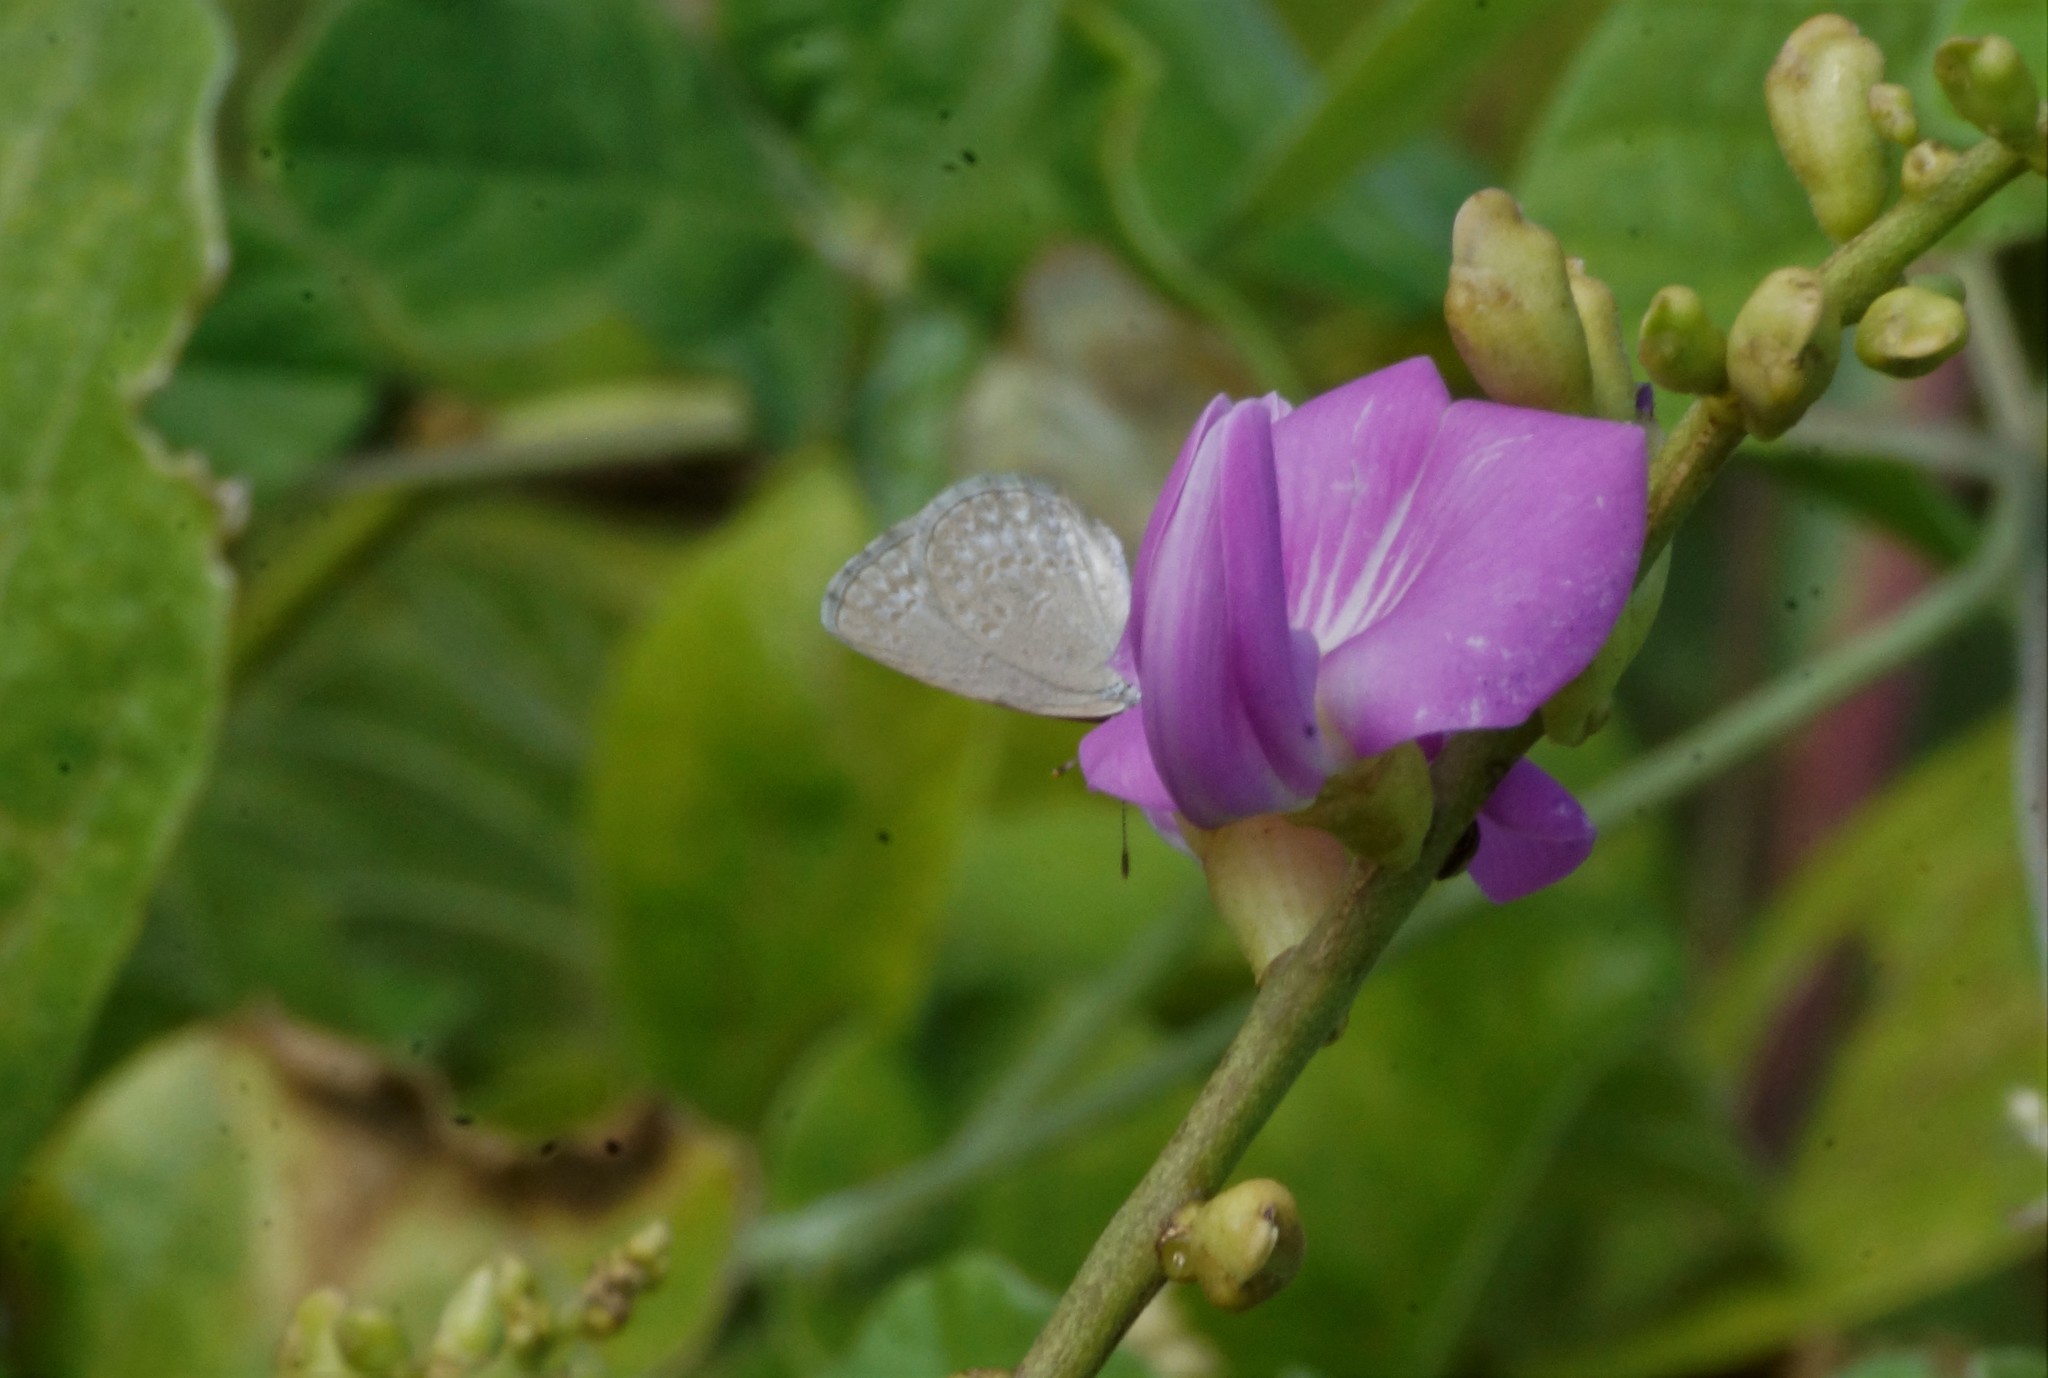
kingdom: Animalia
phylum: Arthropoda
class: Insecta
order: Lepidoptera
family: Lycaenidae
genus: Zizina
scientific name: Zizina otis
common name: Lesser grass blue
